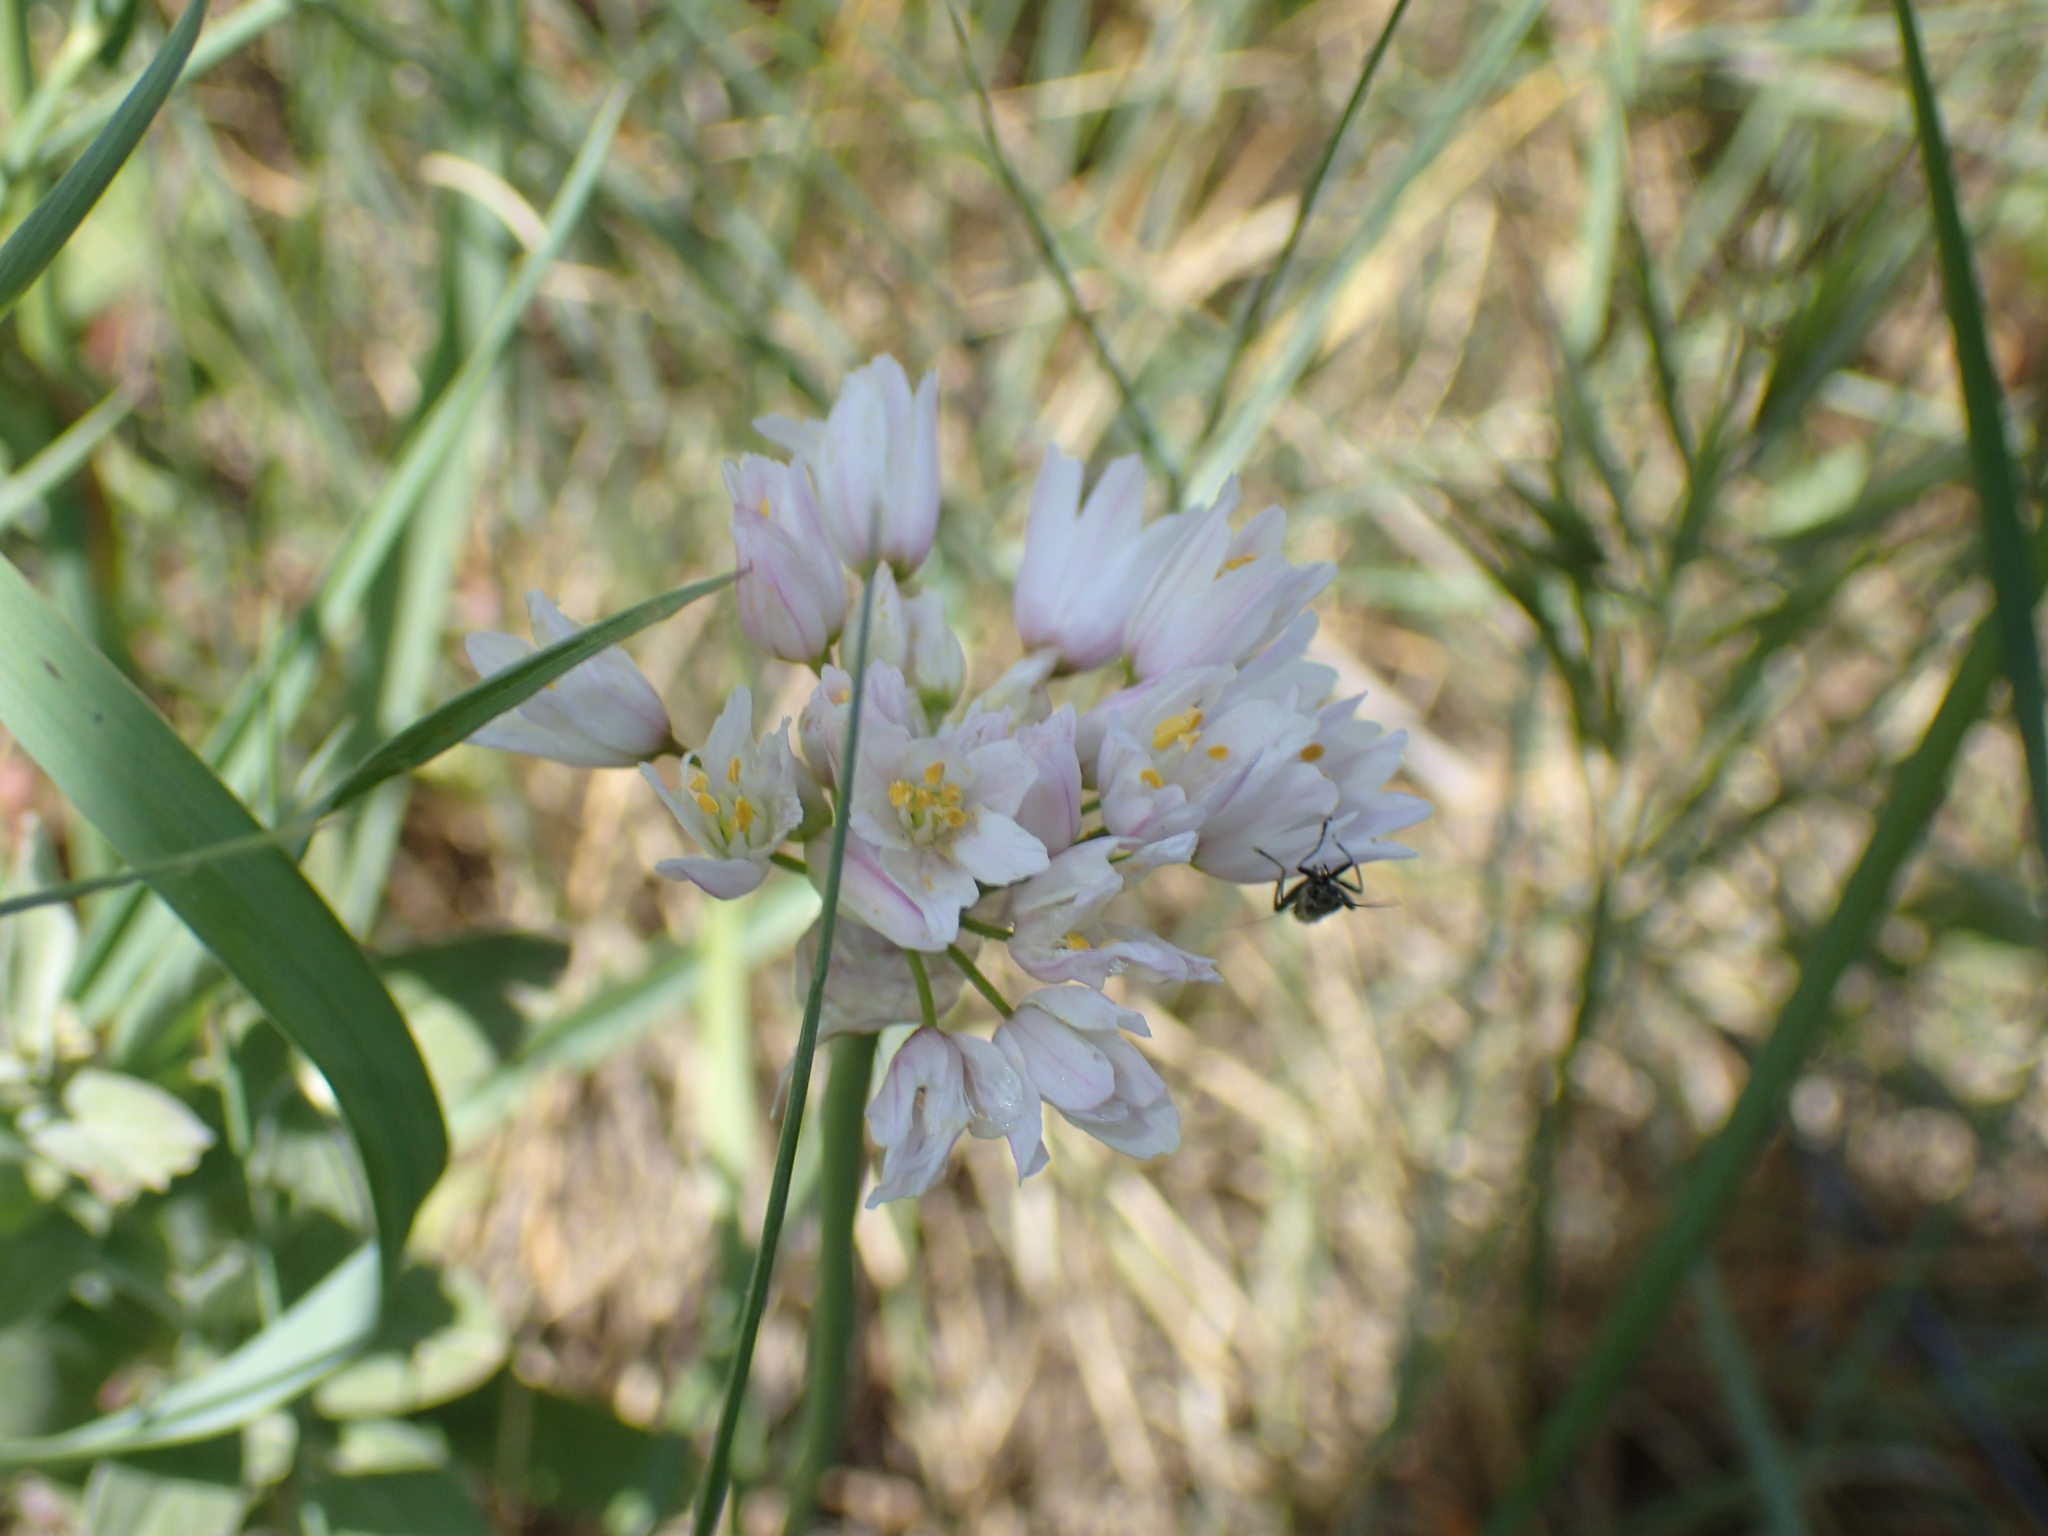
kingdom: Plantae
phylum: Tracheophyta
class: Liliopsida
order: Asparagales
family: Amaryllidaceae
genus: Allium
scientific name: Allium roseum
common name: Rosy garlic
